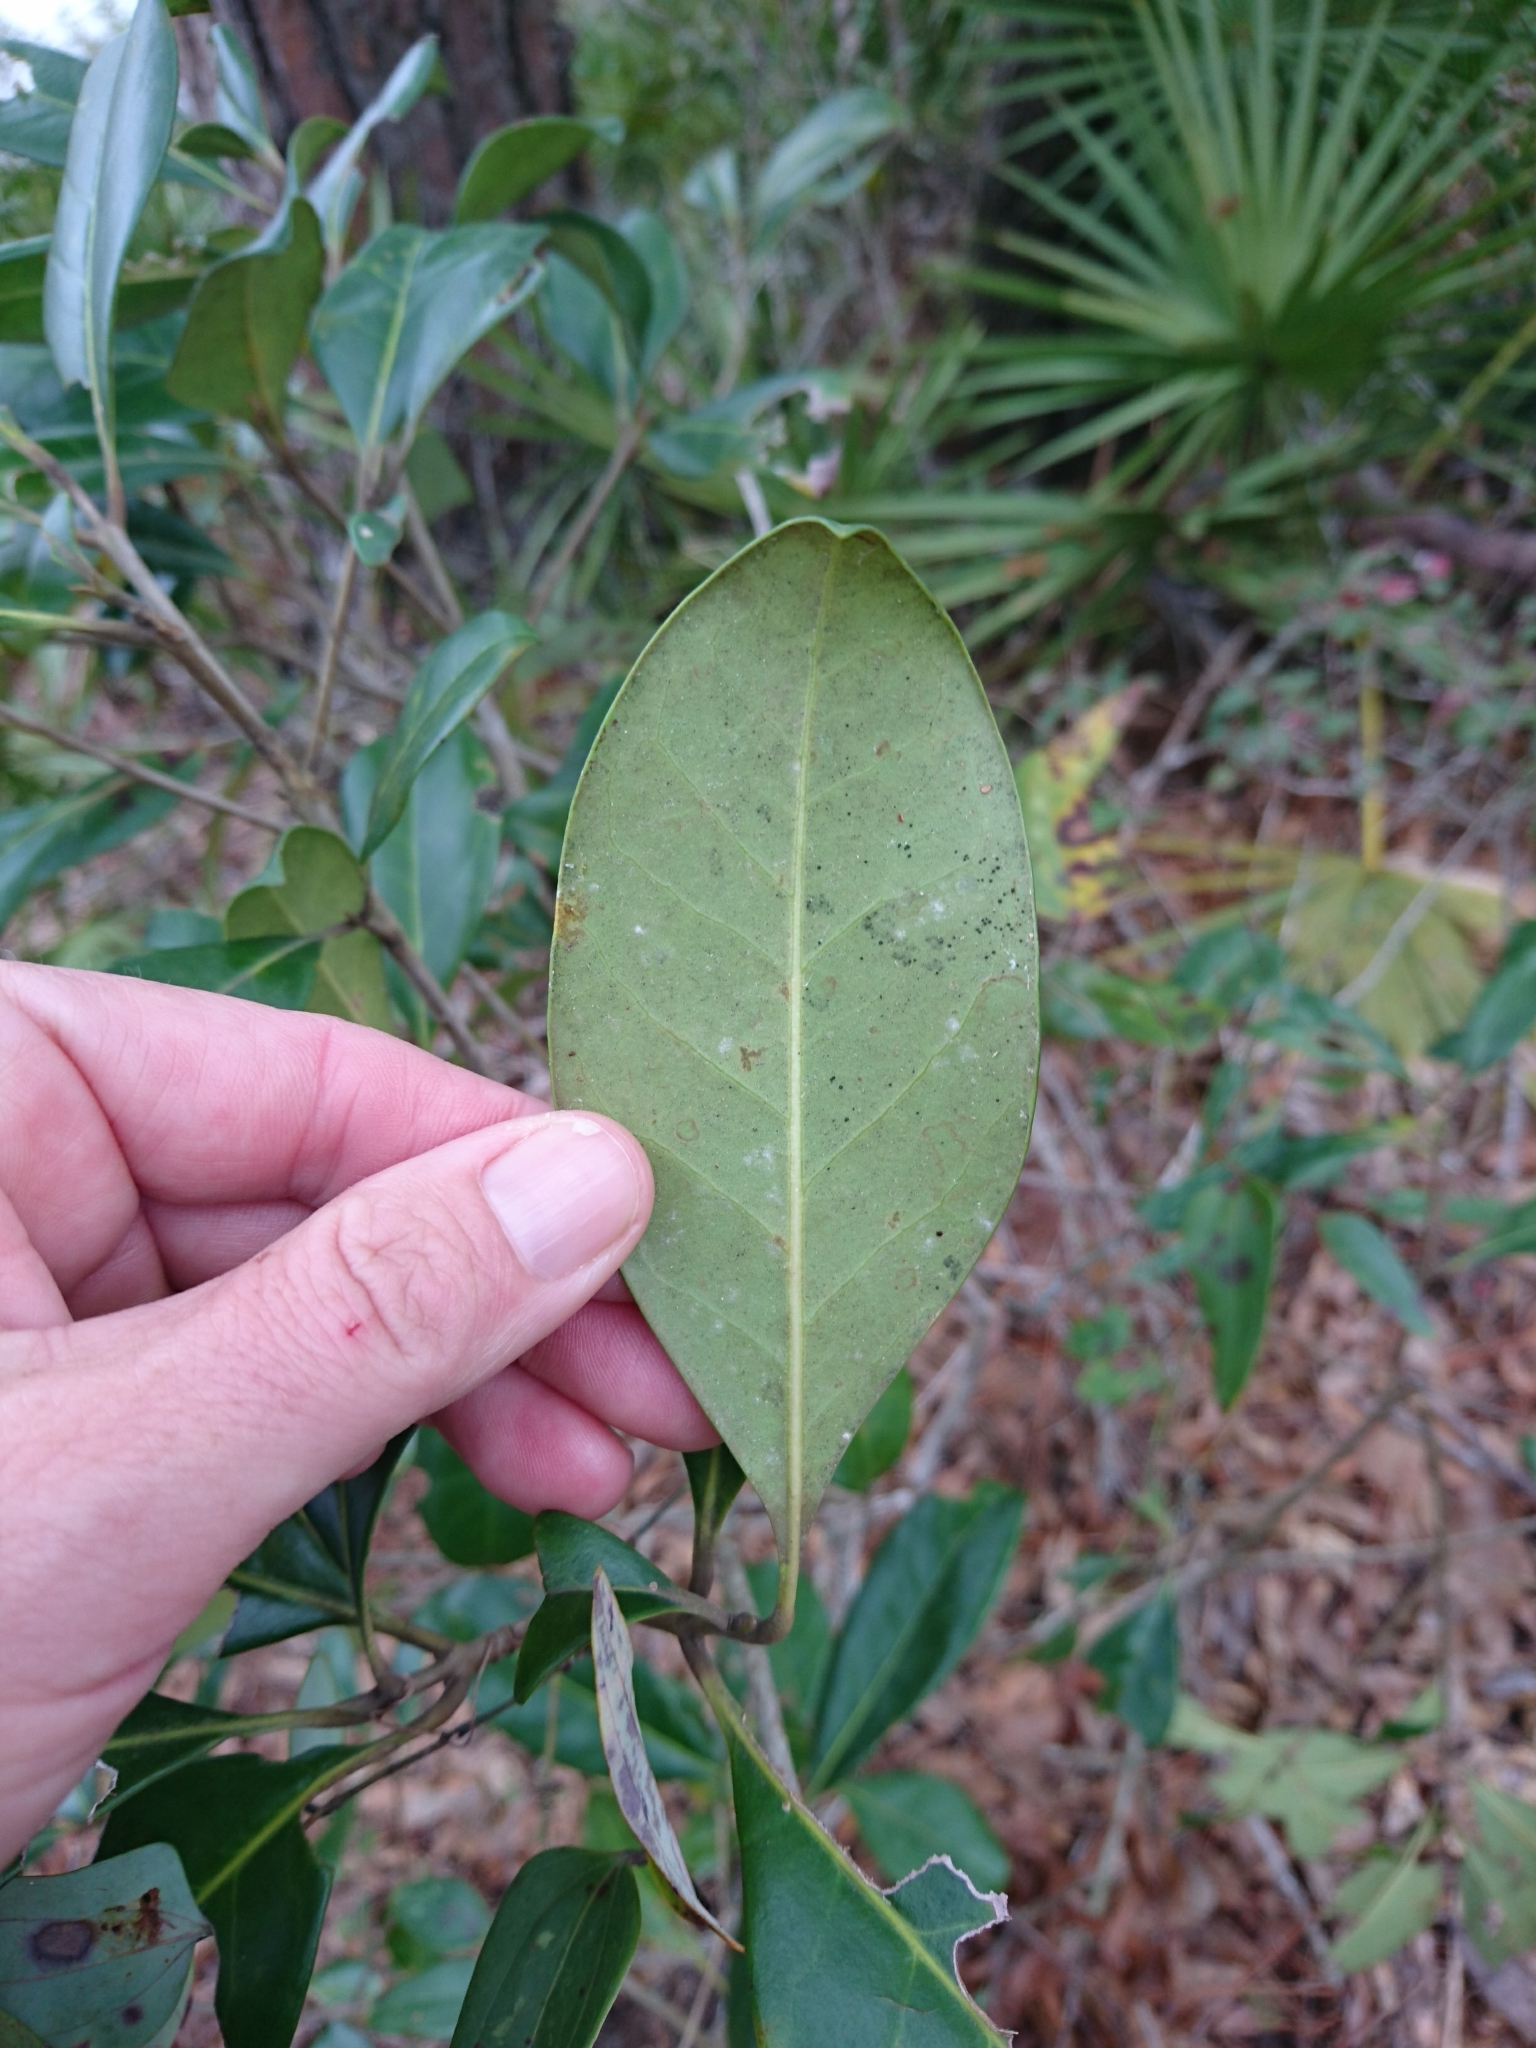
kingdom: Plantae
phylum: Tracheophyta
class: Magnoliopsida
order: Lamiales
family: Oleaceae
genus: Cartrema
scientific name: Cartrema americana
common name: Devilwood
